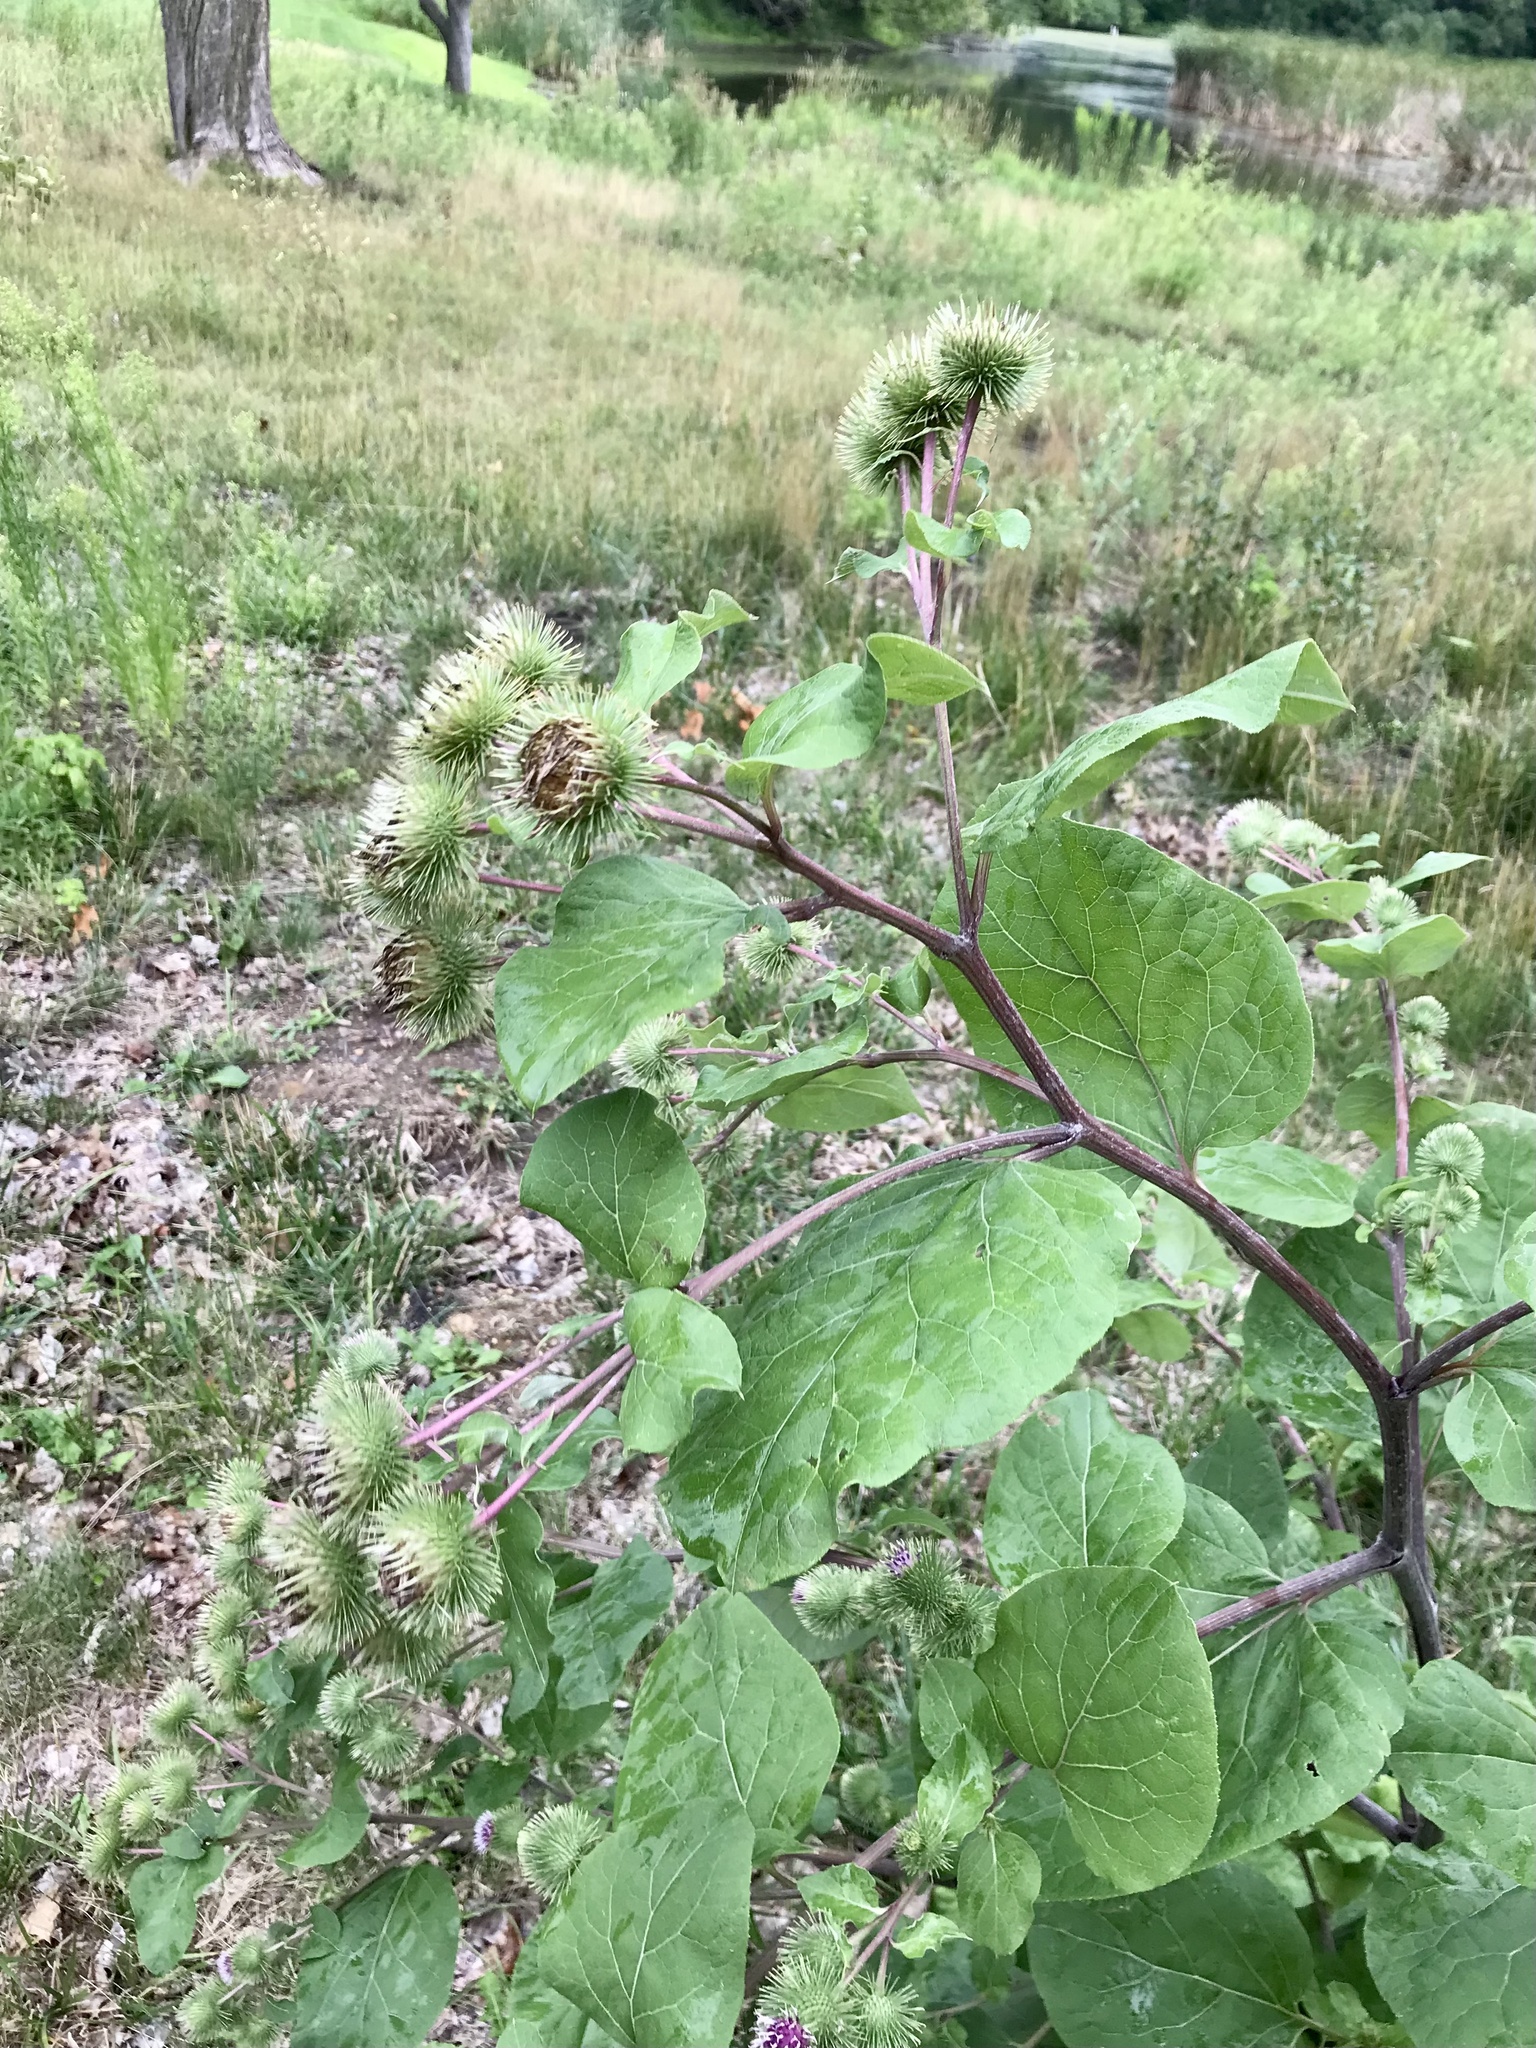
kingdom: Plantae
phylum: Tracheophyta
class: Magnoliopsida
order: Asterales
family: Asteraceae
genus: Arctium
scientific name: Arctium lappa
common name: Greater burdock
